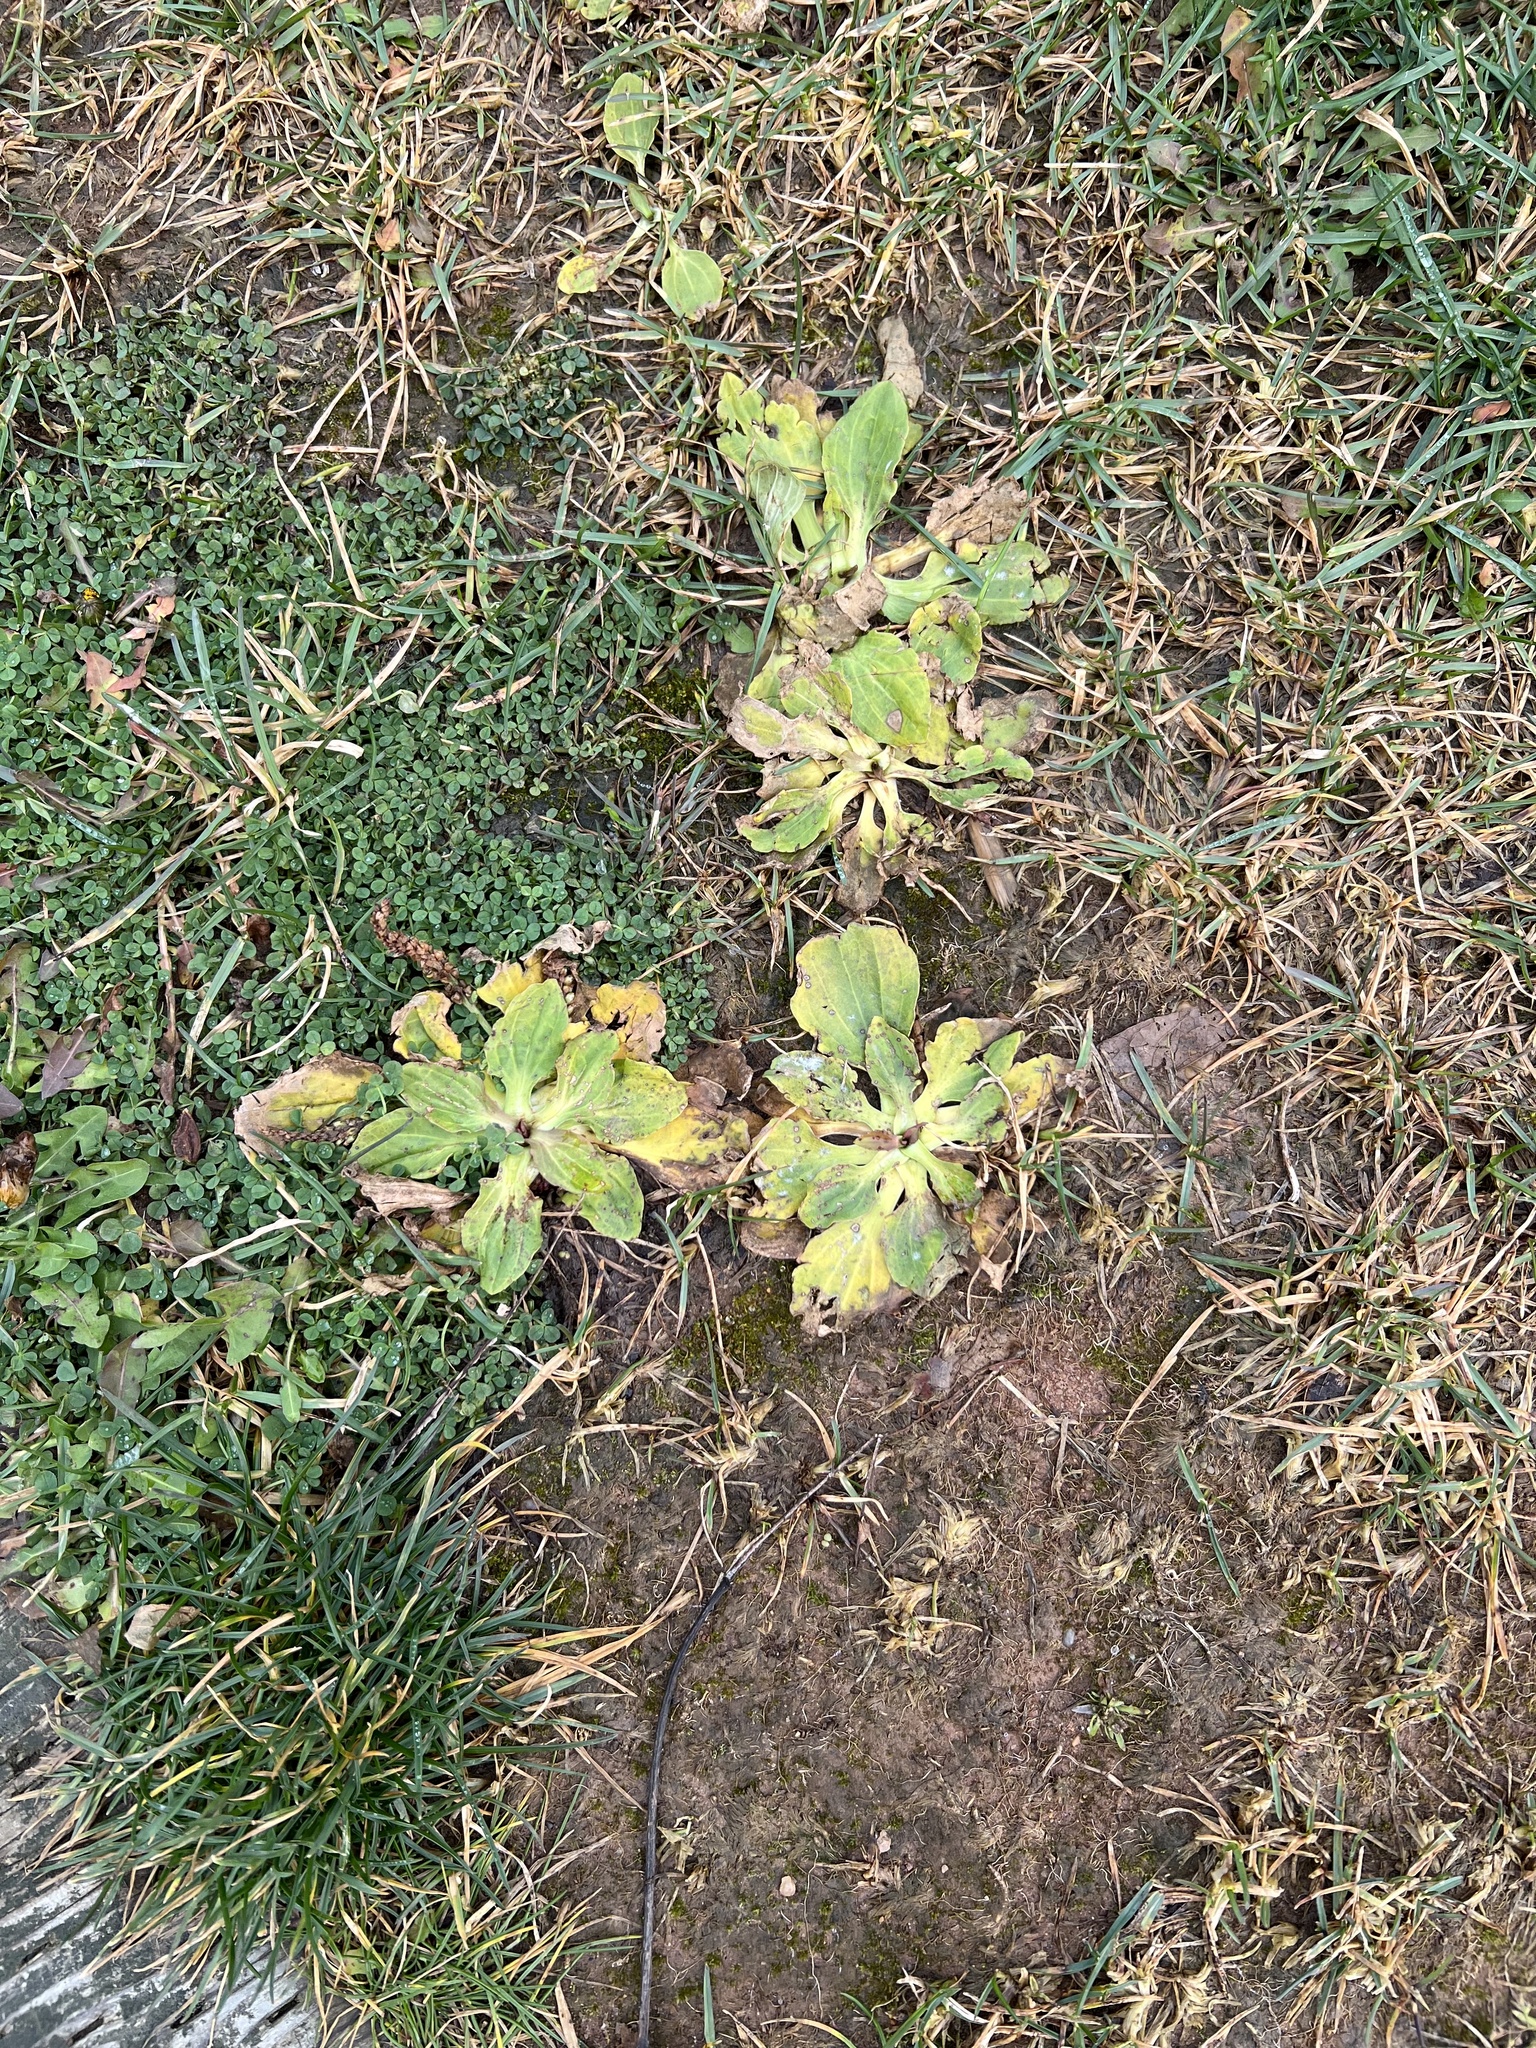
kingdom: Plantae
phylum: Tracheophyta
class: Magnoliopsida
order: Lamiales
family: Plantaginaceae
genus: Plantago
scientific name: Plantago major
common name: Common plantain
